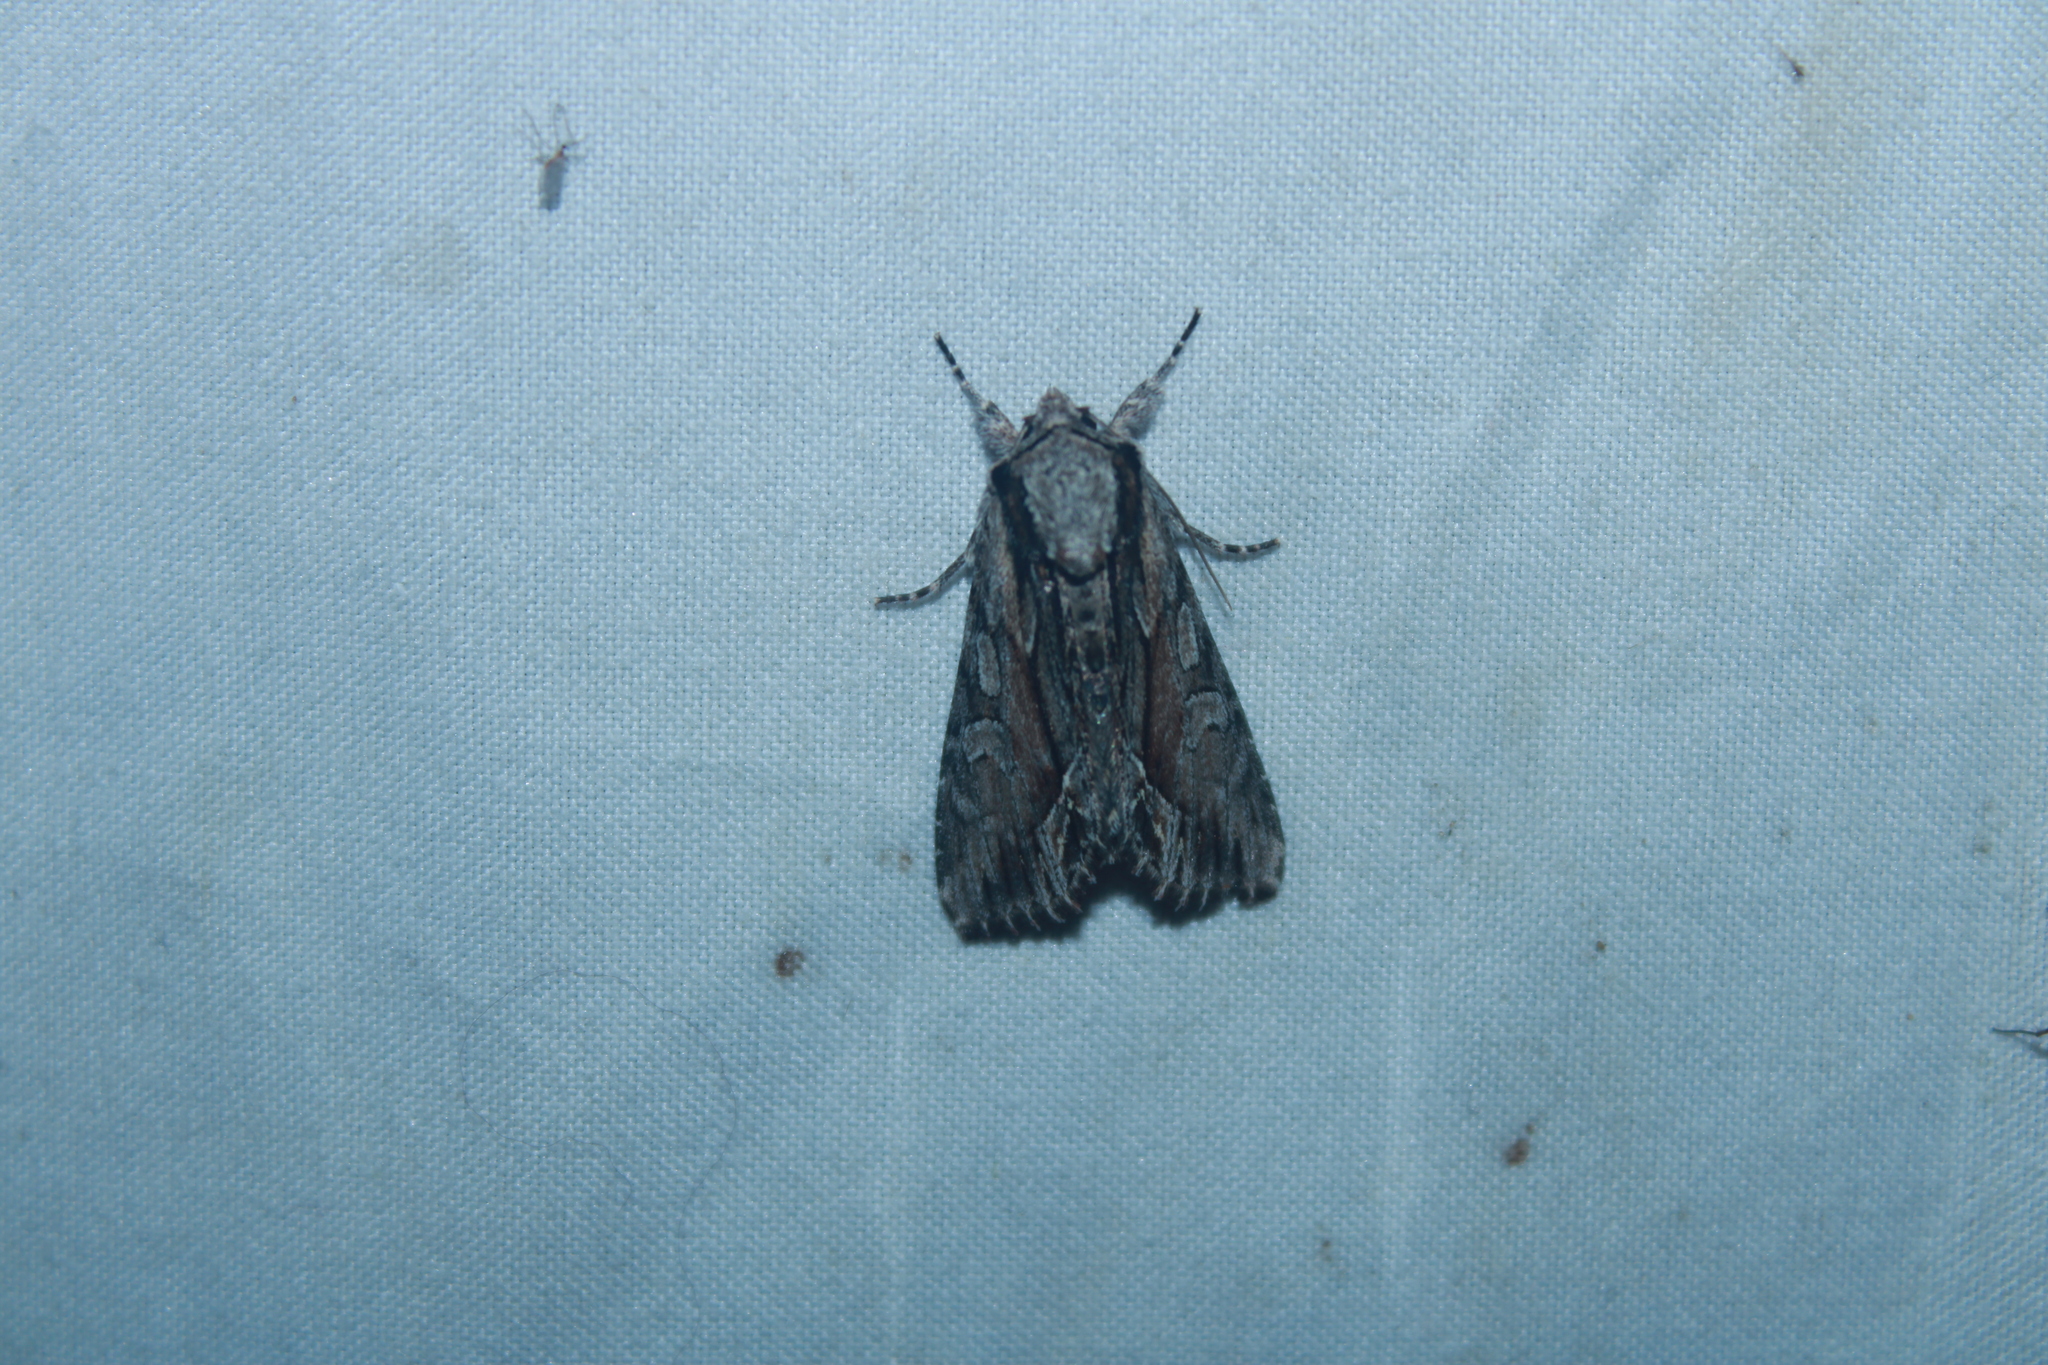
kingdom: Animalia
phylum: Arthropoda
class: Insecta
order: Lepidoptera
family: Noctuidae
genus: Hyppa
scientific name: Hyppa xylinoides
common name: Common hyppa moth
